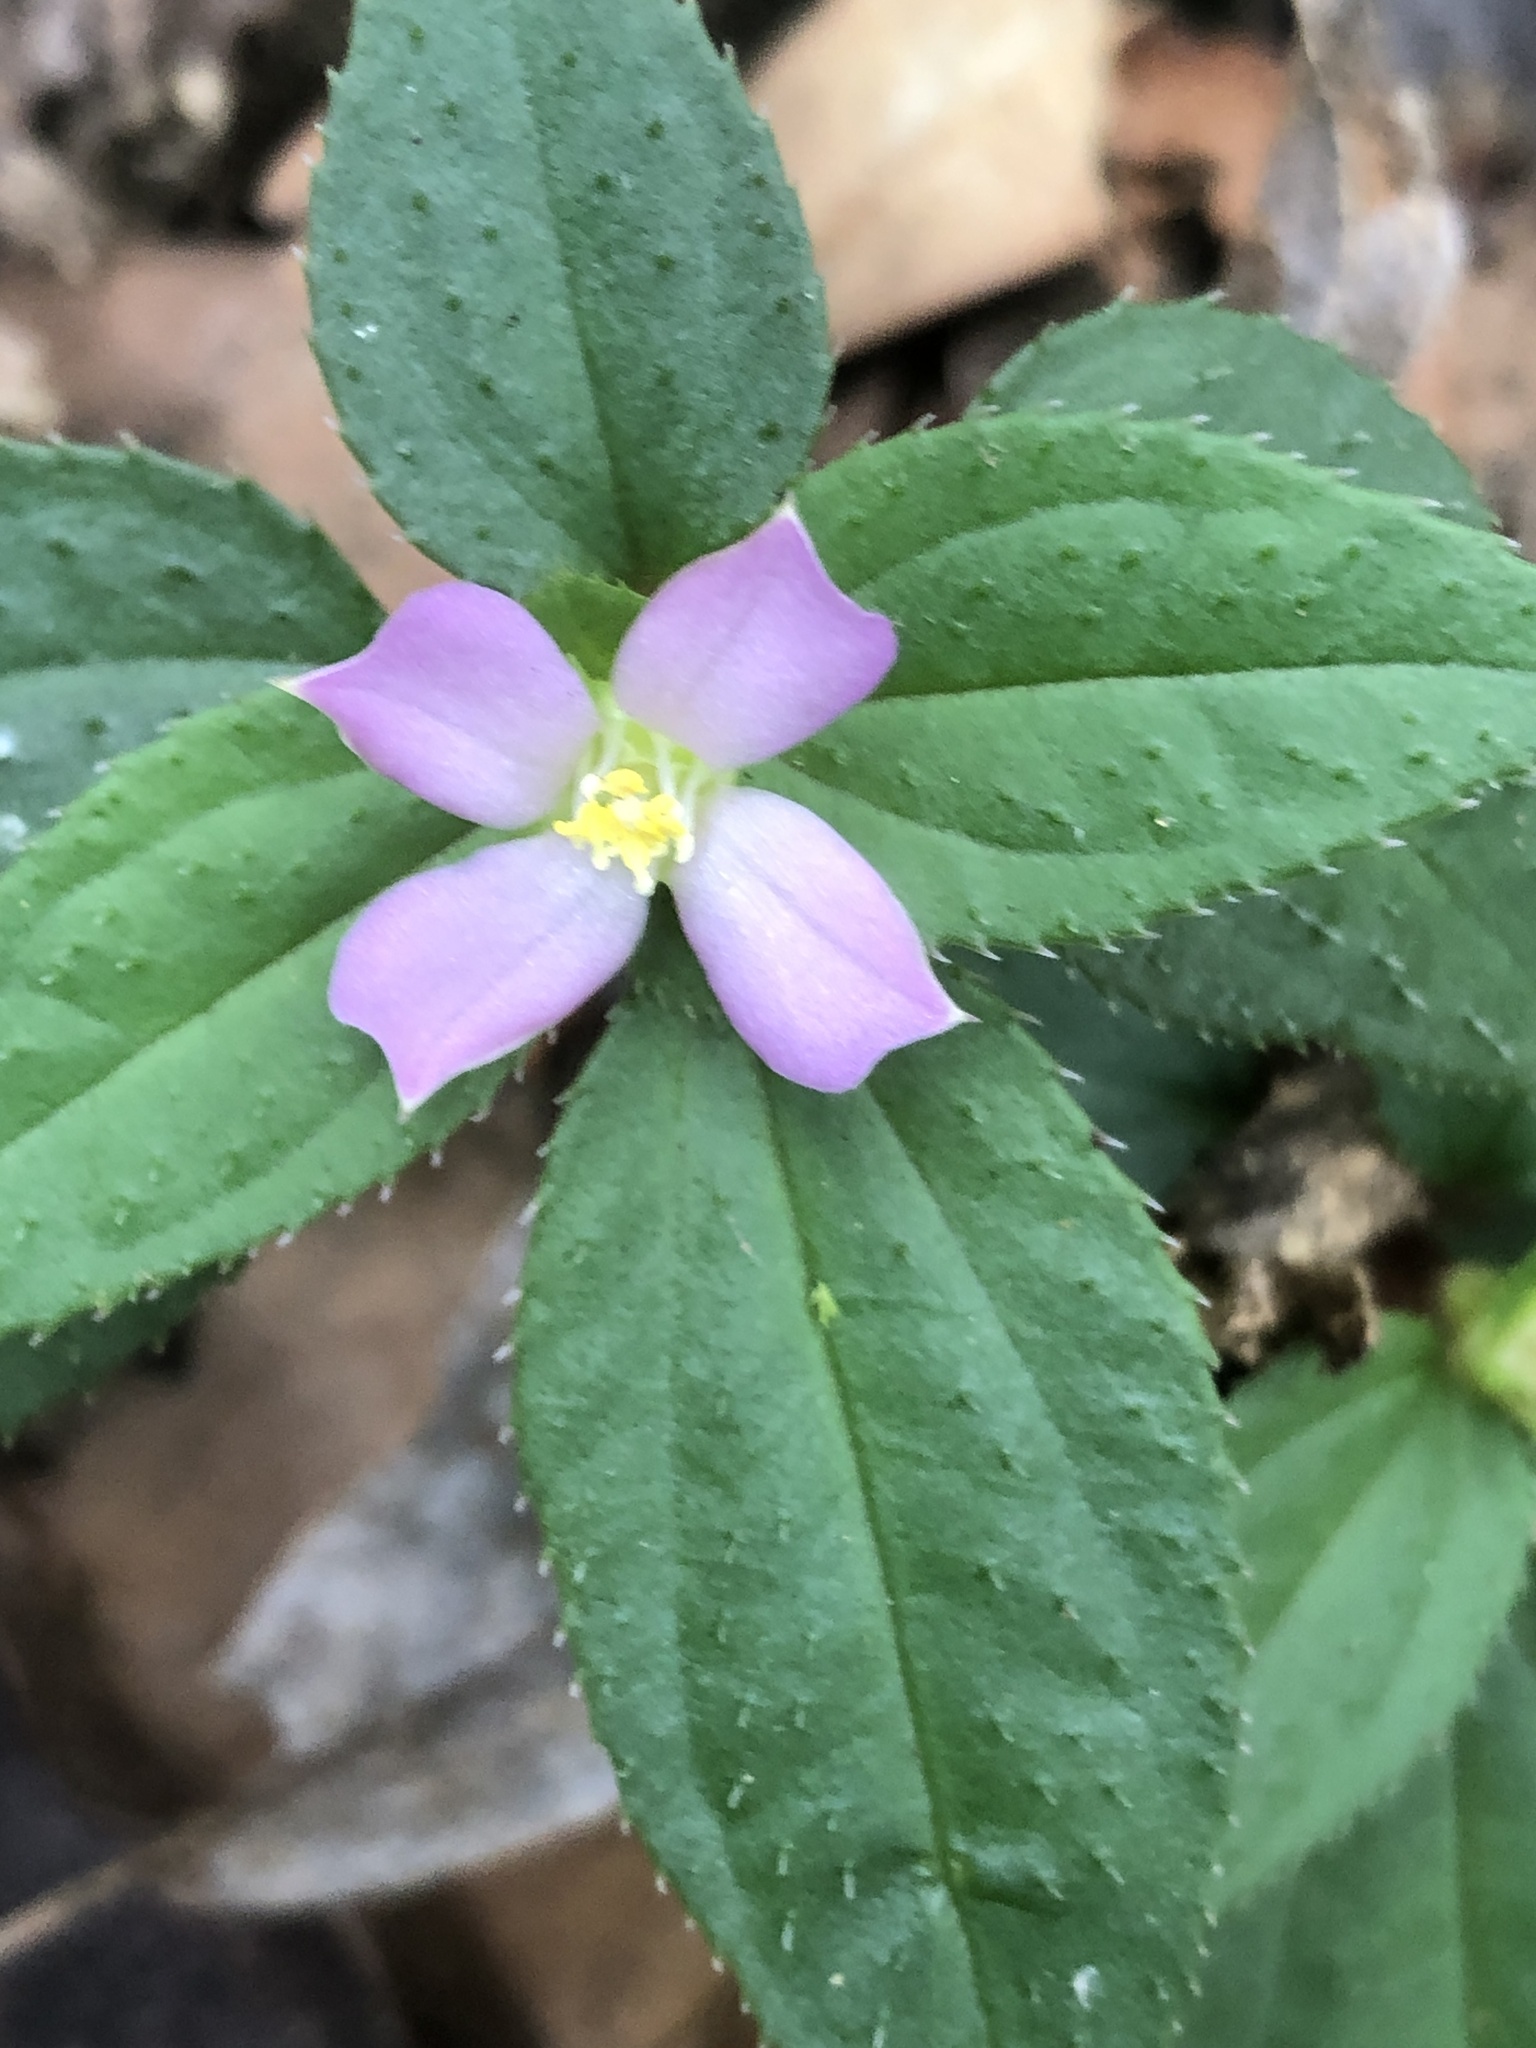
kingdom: Plantae
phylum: Tracheophyta
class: Magnoliopsida
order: Myrtales
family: Melastomataceae
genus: Sarcopyramis
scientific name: Sarcopyramis napalensis
